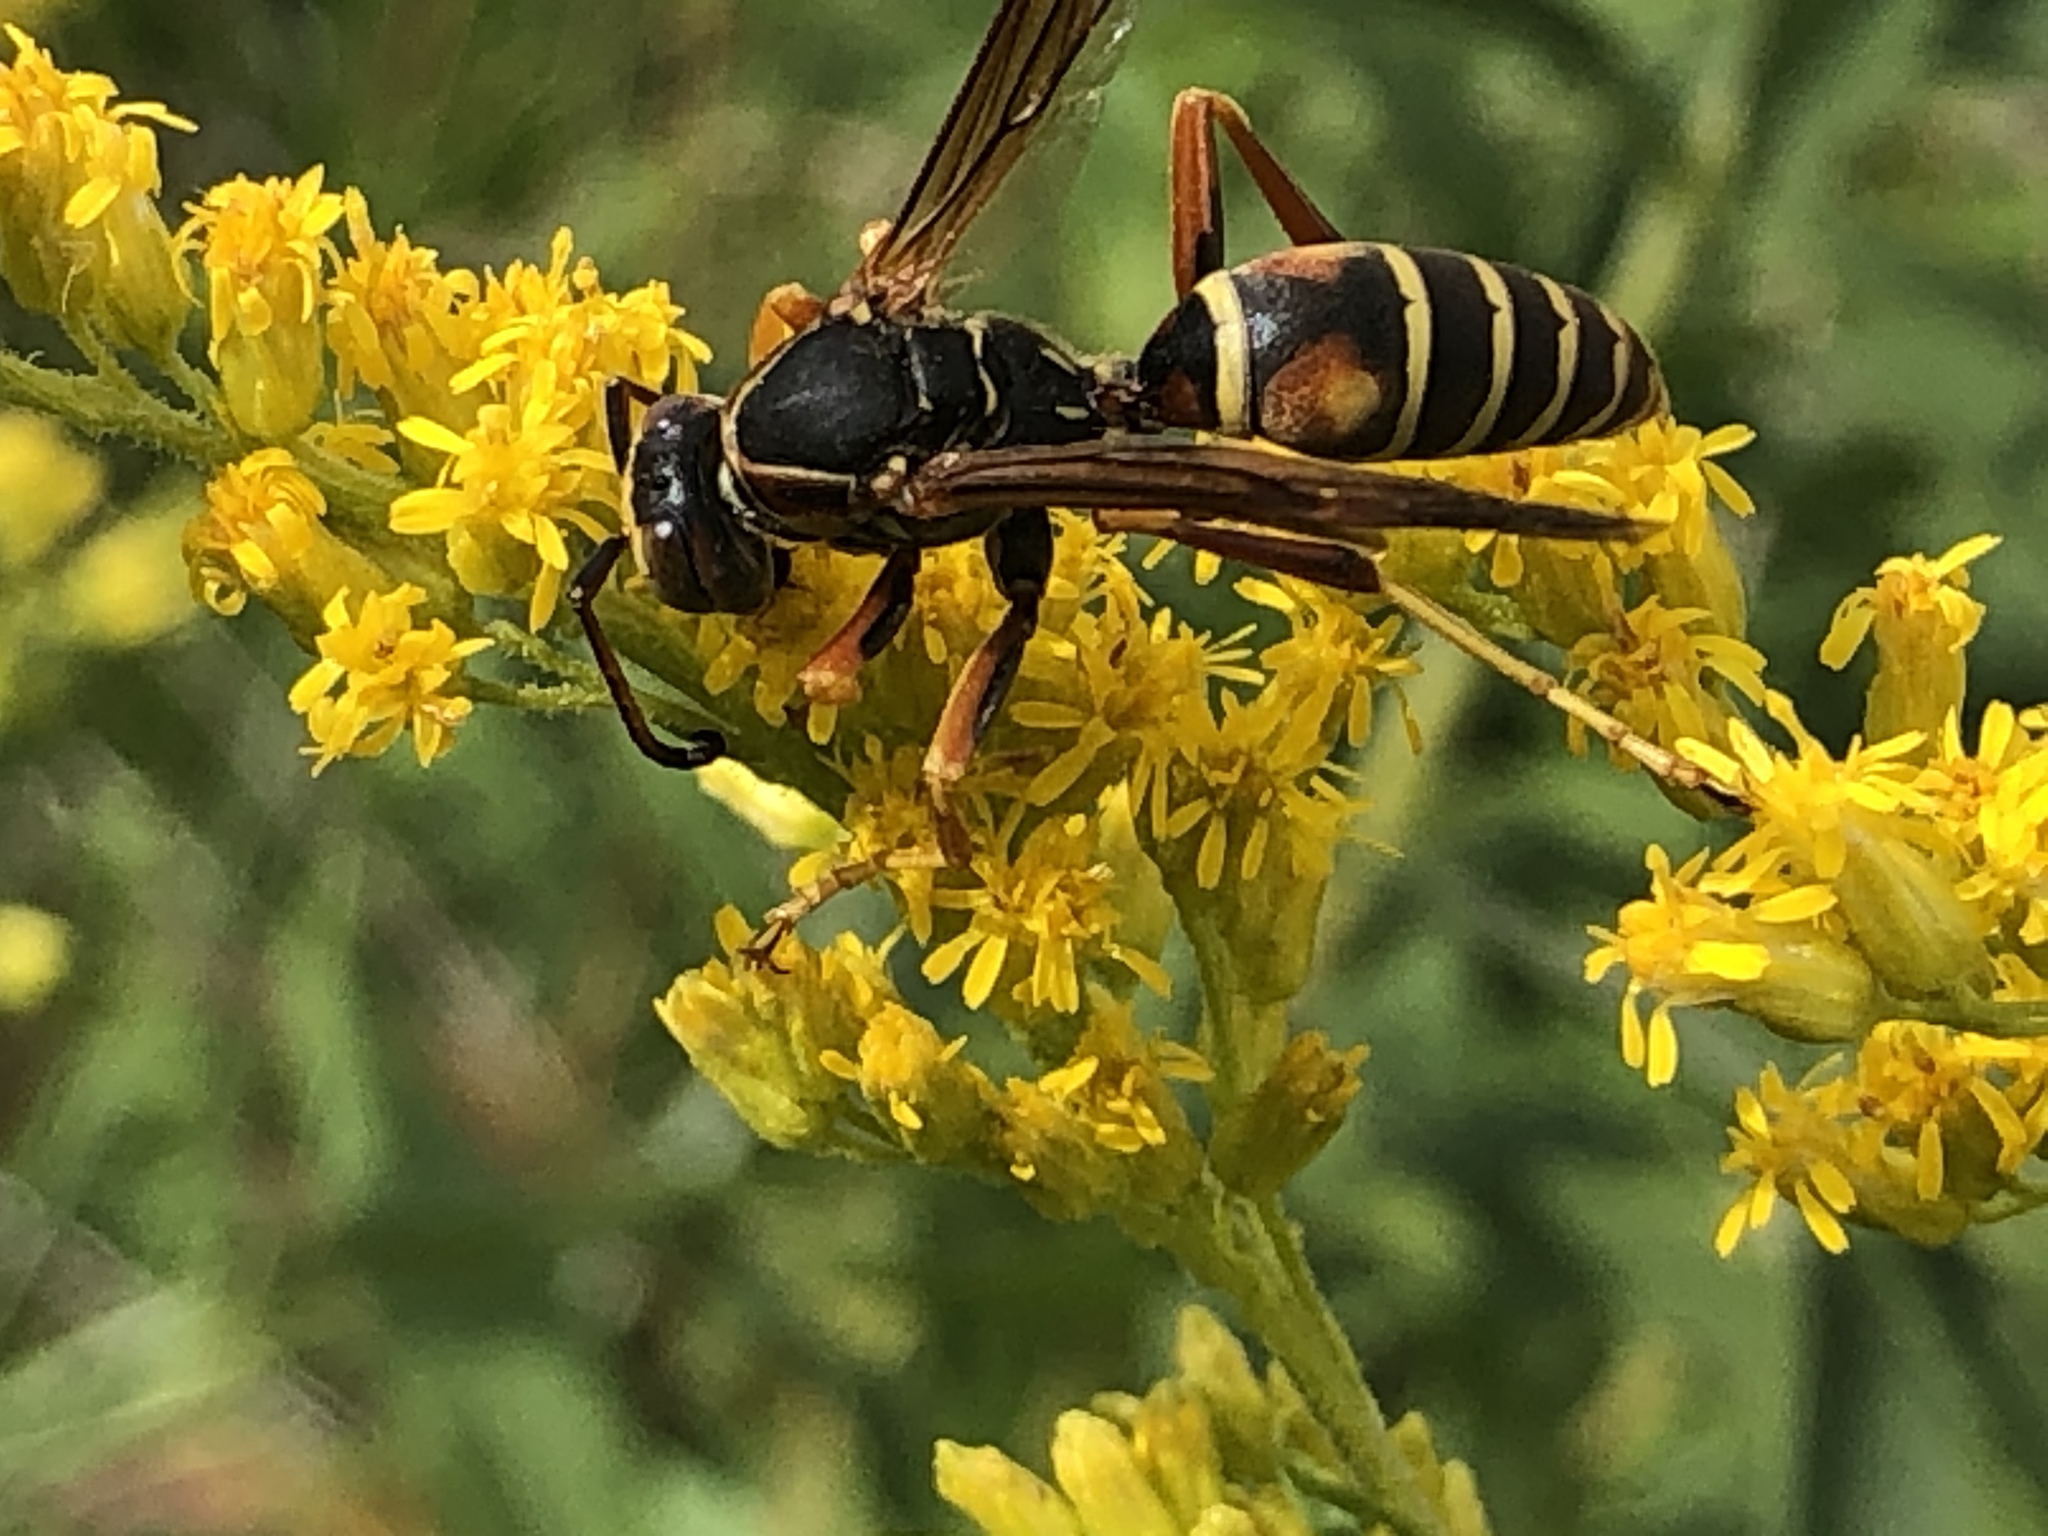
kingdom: Animalia
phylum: Arthropoda
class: Insecta
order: Hymenoptera
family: Eumenidae
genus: Polistes
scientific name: Polistes fuscatus
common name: Dark paper wasp
